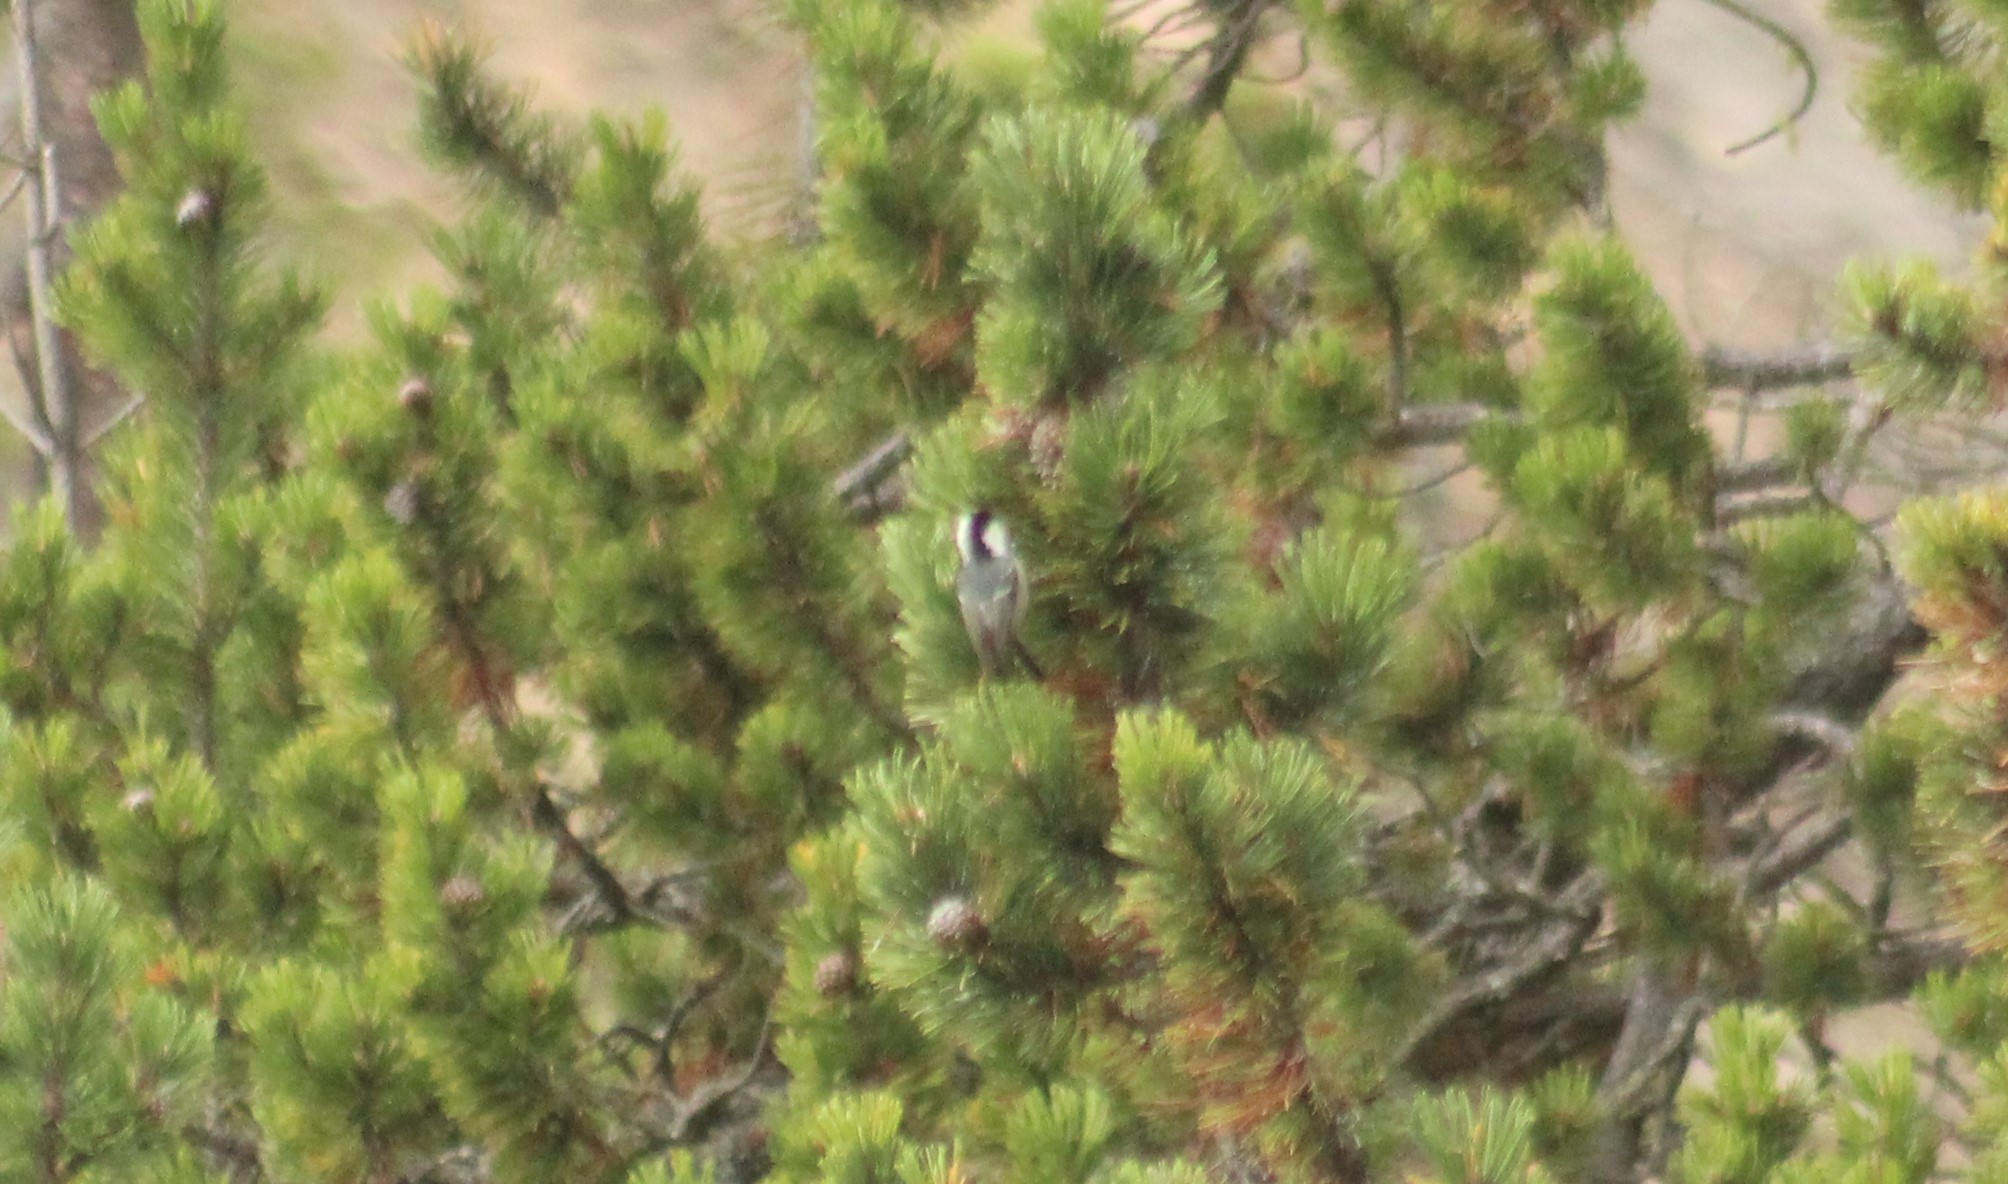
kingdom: Animalia
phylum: Chordata
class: Aves
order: Passeriformes
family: Paridae
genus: Periparus
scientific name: Periparus ater
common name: Coal tit
